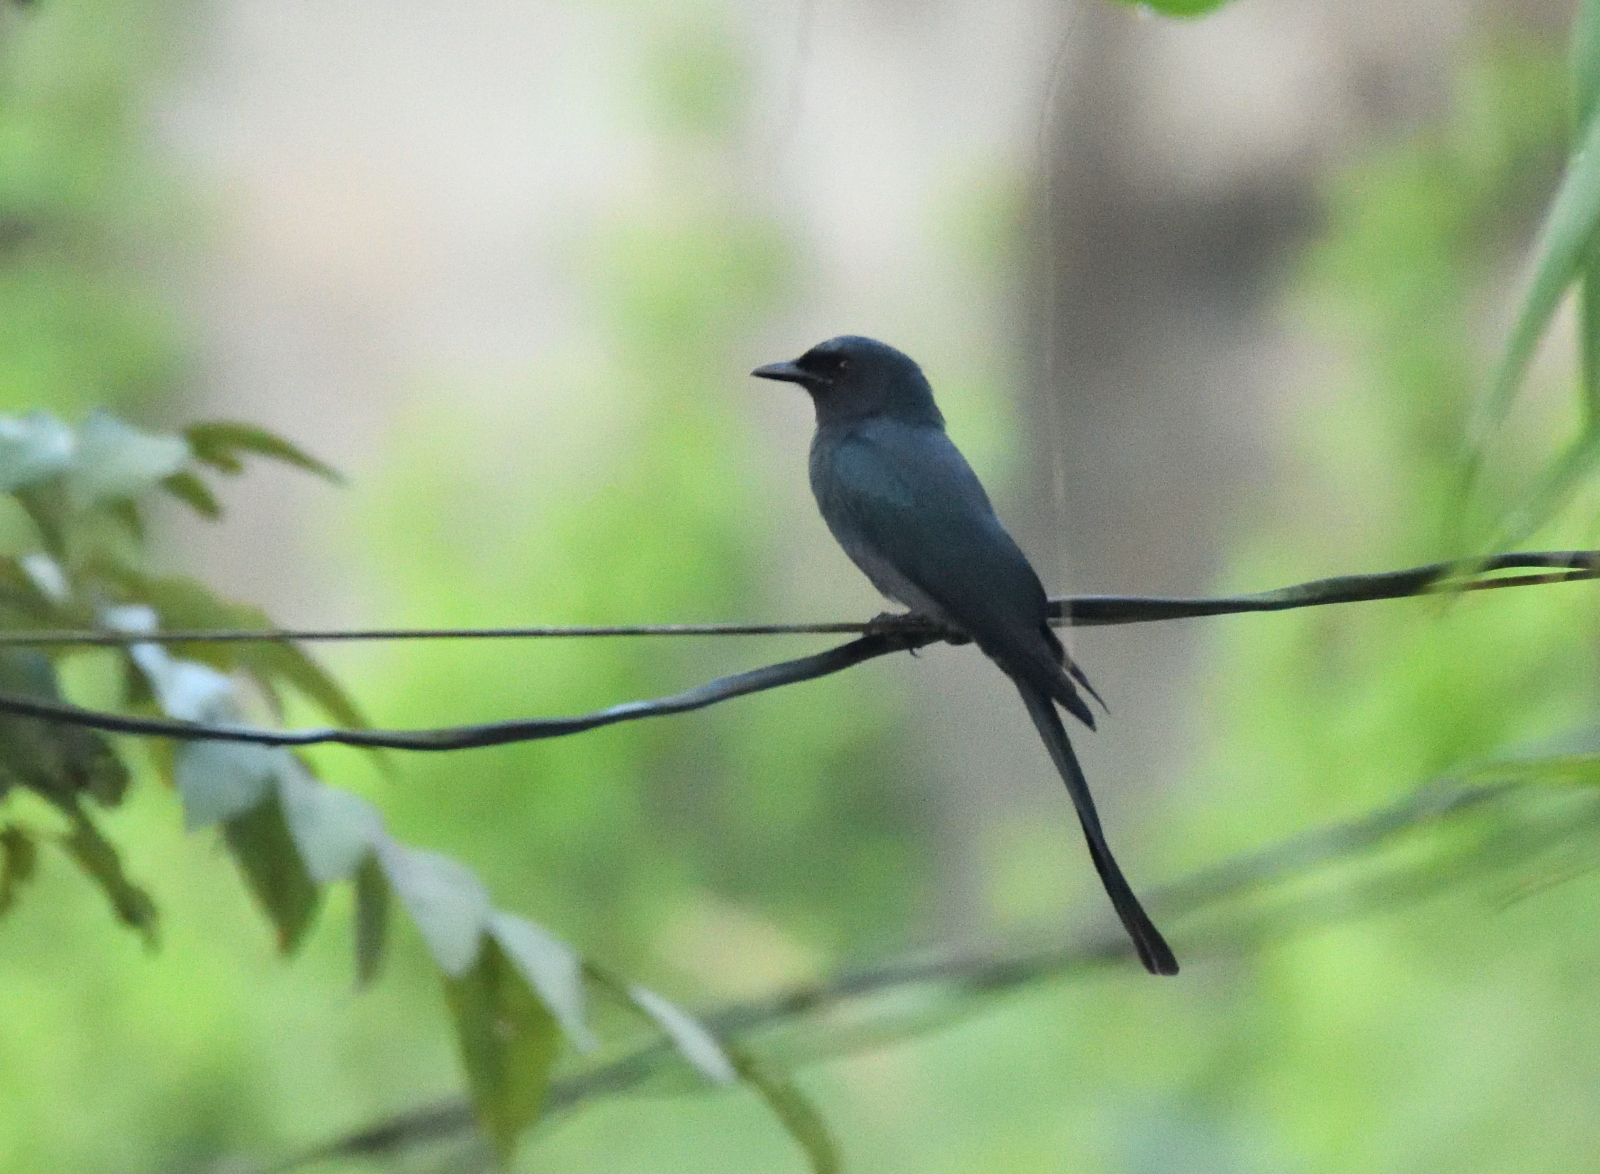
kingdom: Animalia
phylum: Chordata
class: Aves
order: Passeriformes
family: Dicruridae
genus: Dicrurus
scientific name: Dicrurus leucophaeus
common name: Ashy drongo
